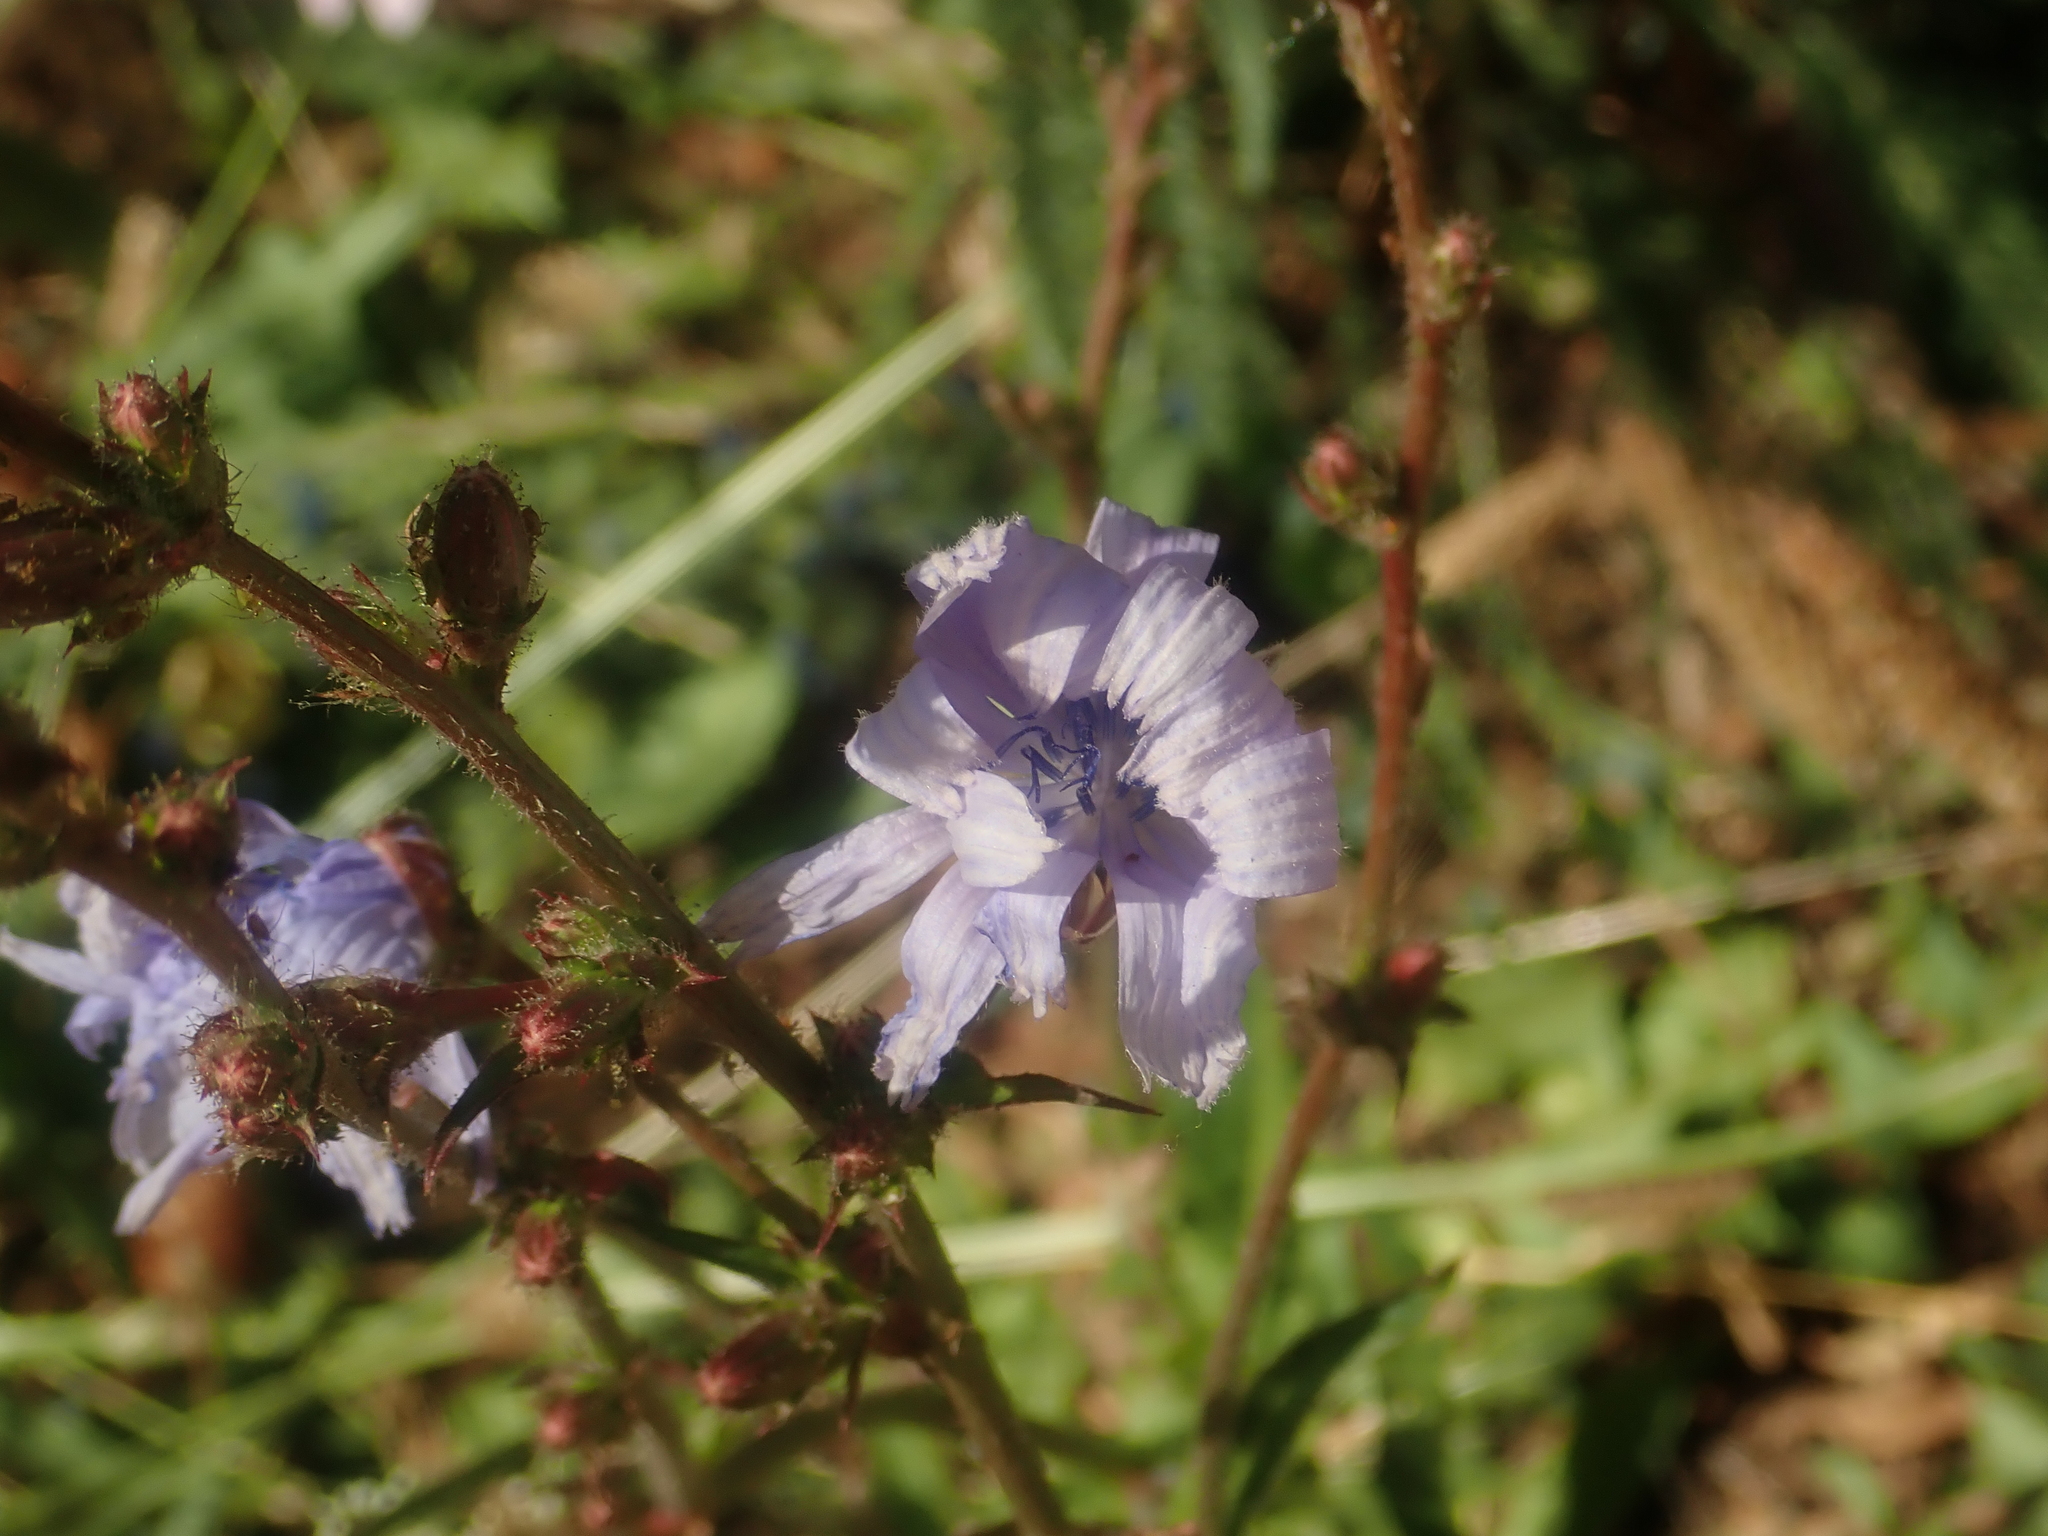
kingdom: Plantae
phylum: Tracheophyta
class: Magnoliopsida
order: Asterales
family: Asteraceae
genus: Cichorium
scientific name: Cichorium intybus
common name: Chicory
